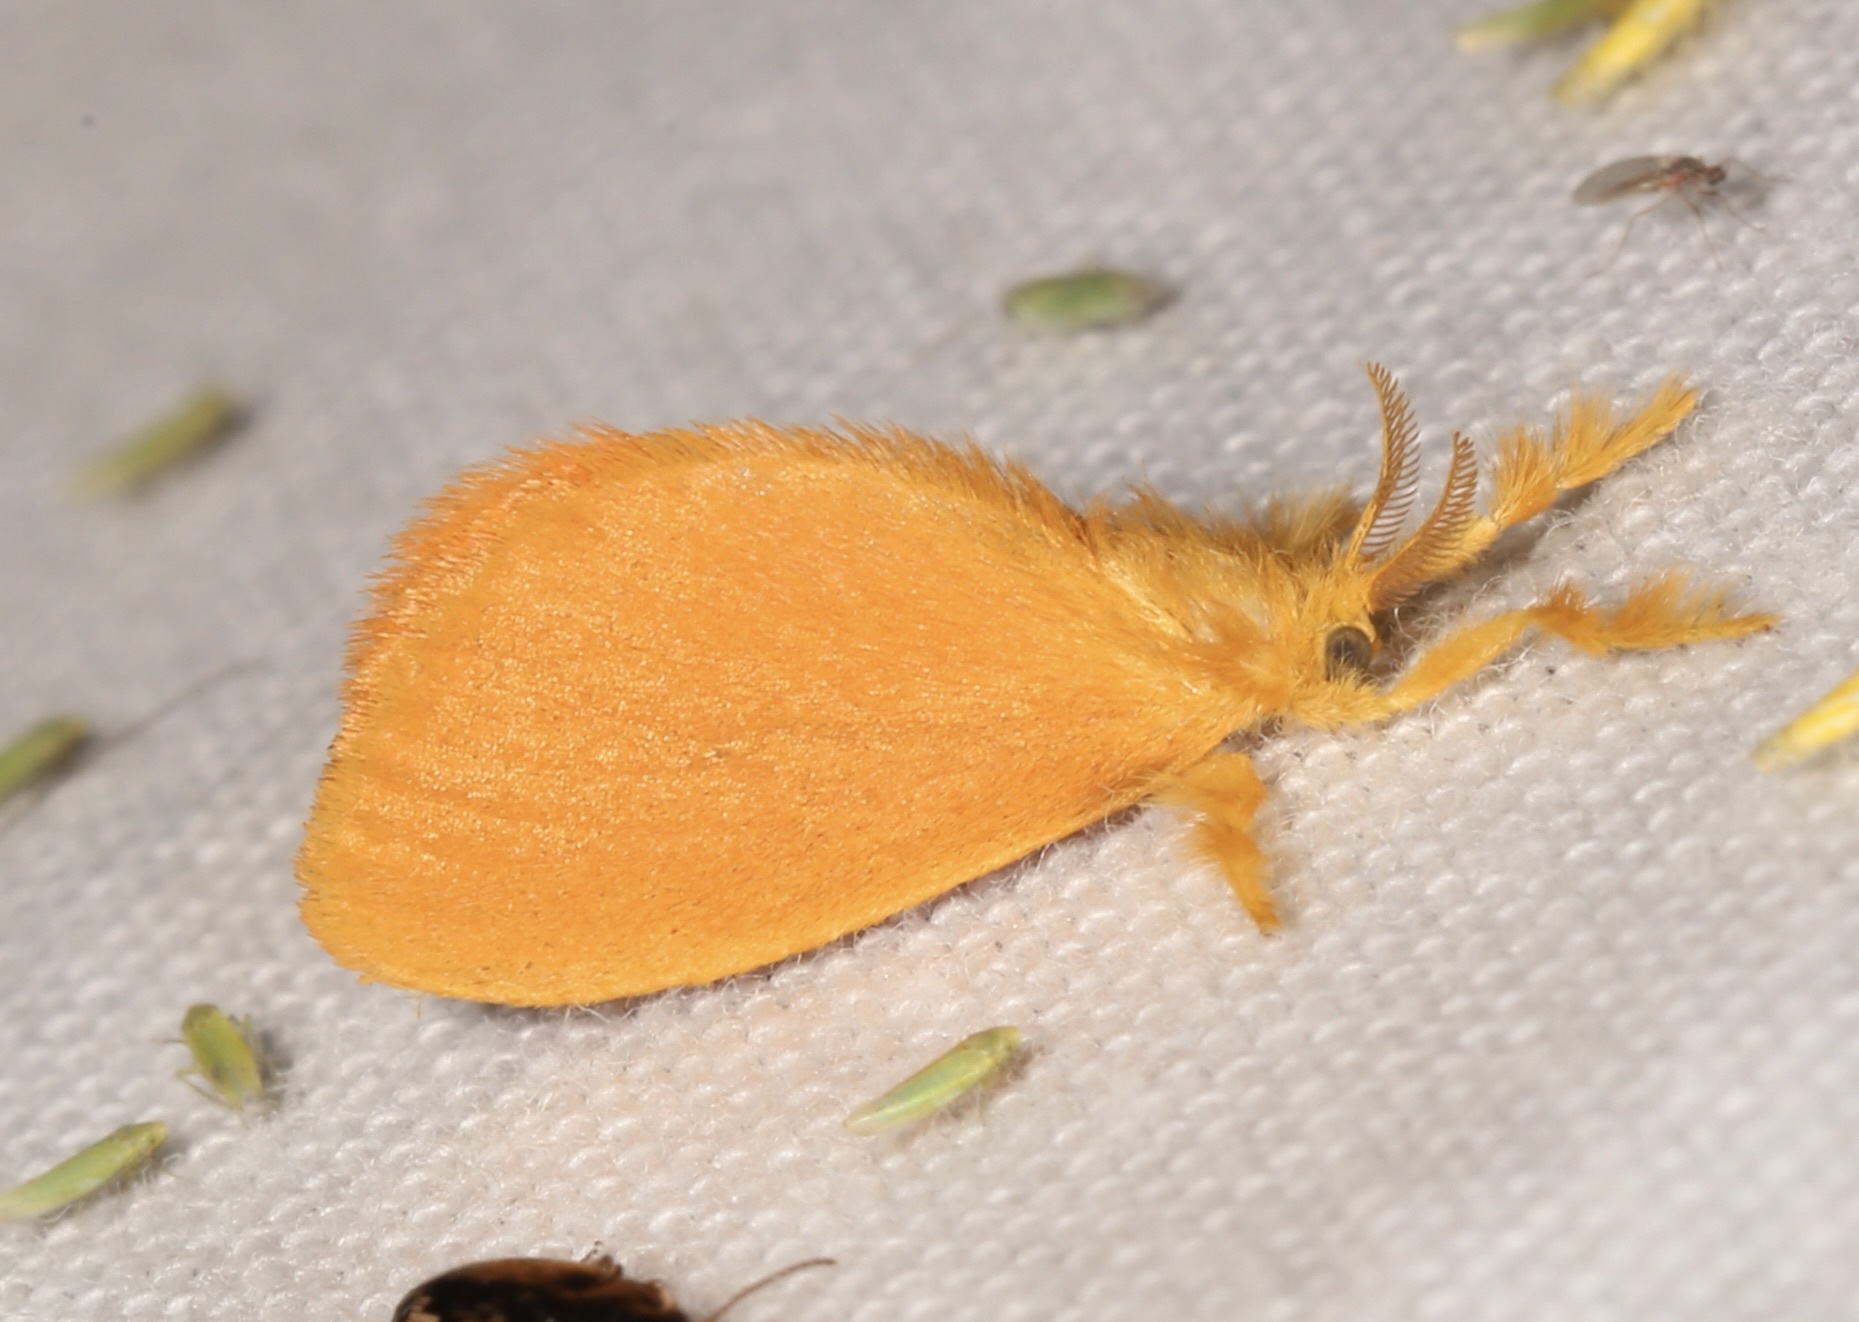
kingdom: Animalia
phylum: Arthropoda
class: Insecta
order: Lepidoptera
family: Dalceridae
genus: Dalcerides
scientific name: Dalcerides ingenita
